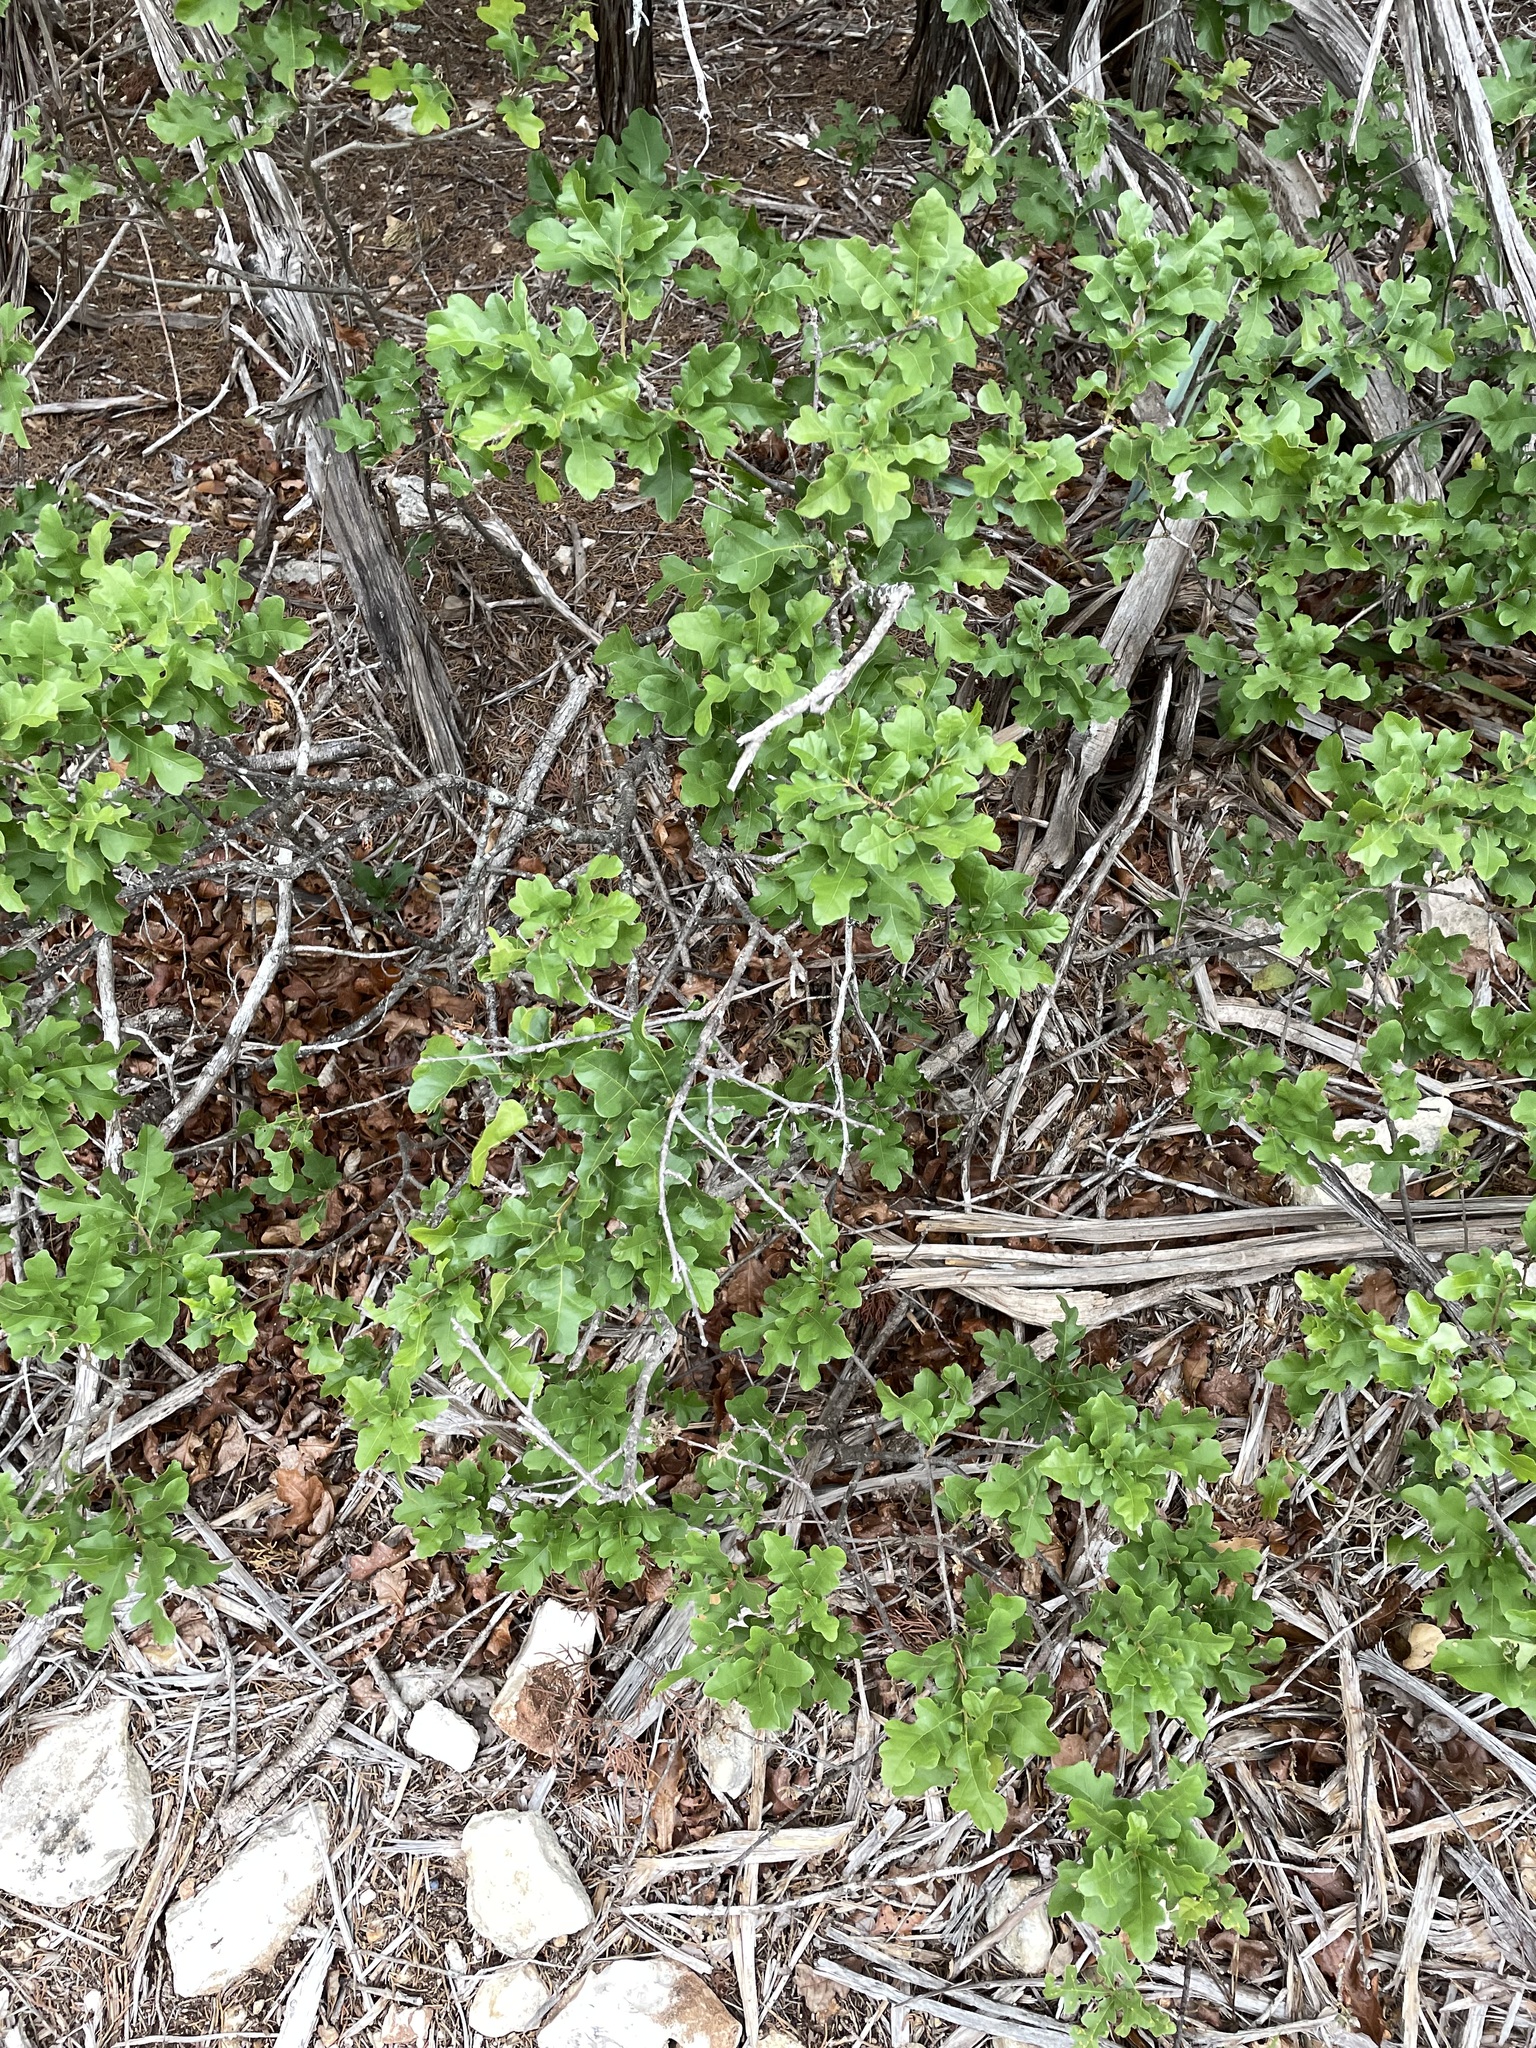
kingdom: Plantae
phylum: Tracheophyta
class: Magnoliopsida
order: Fagales
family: Fagaceae
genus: Quercus
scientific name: Quercus sinuata
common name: Durand oak
